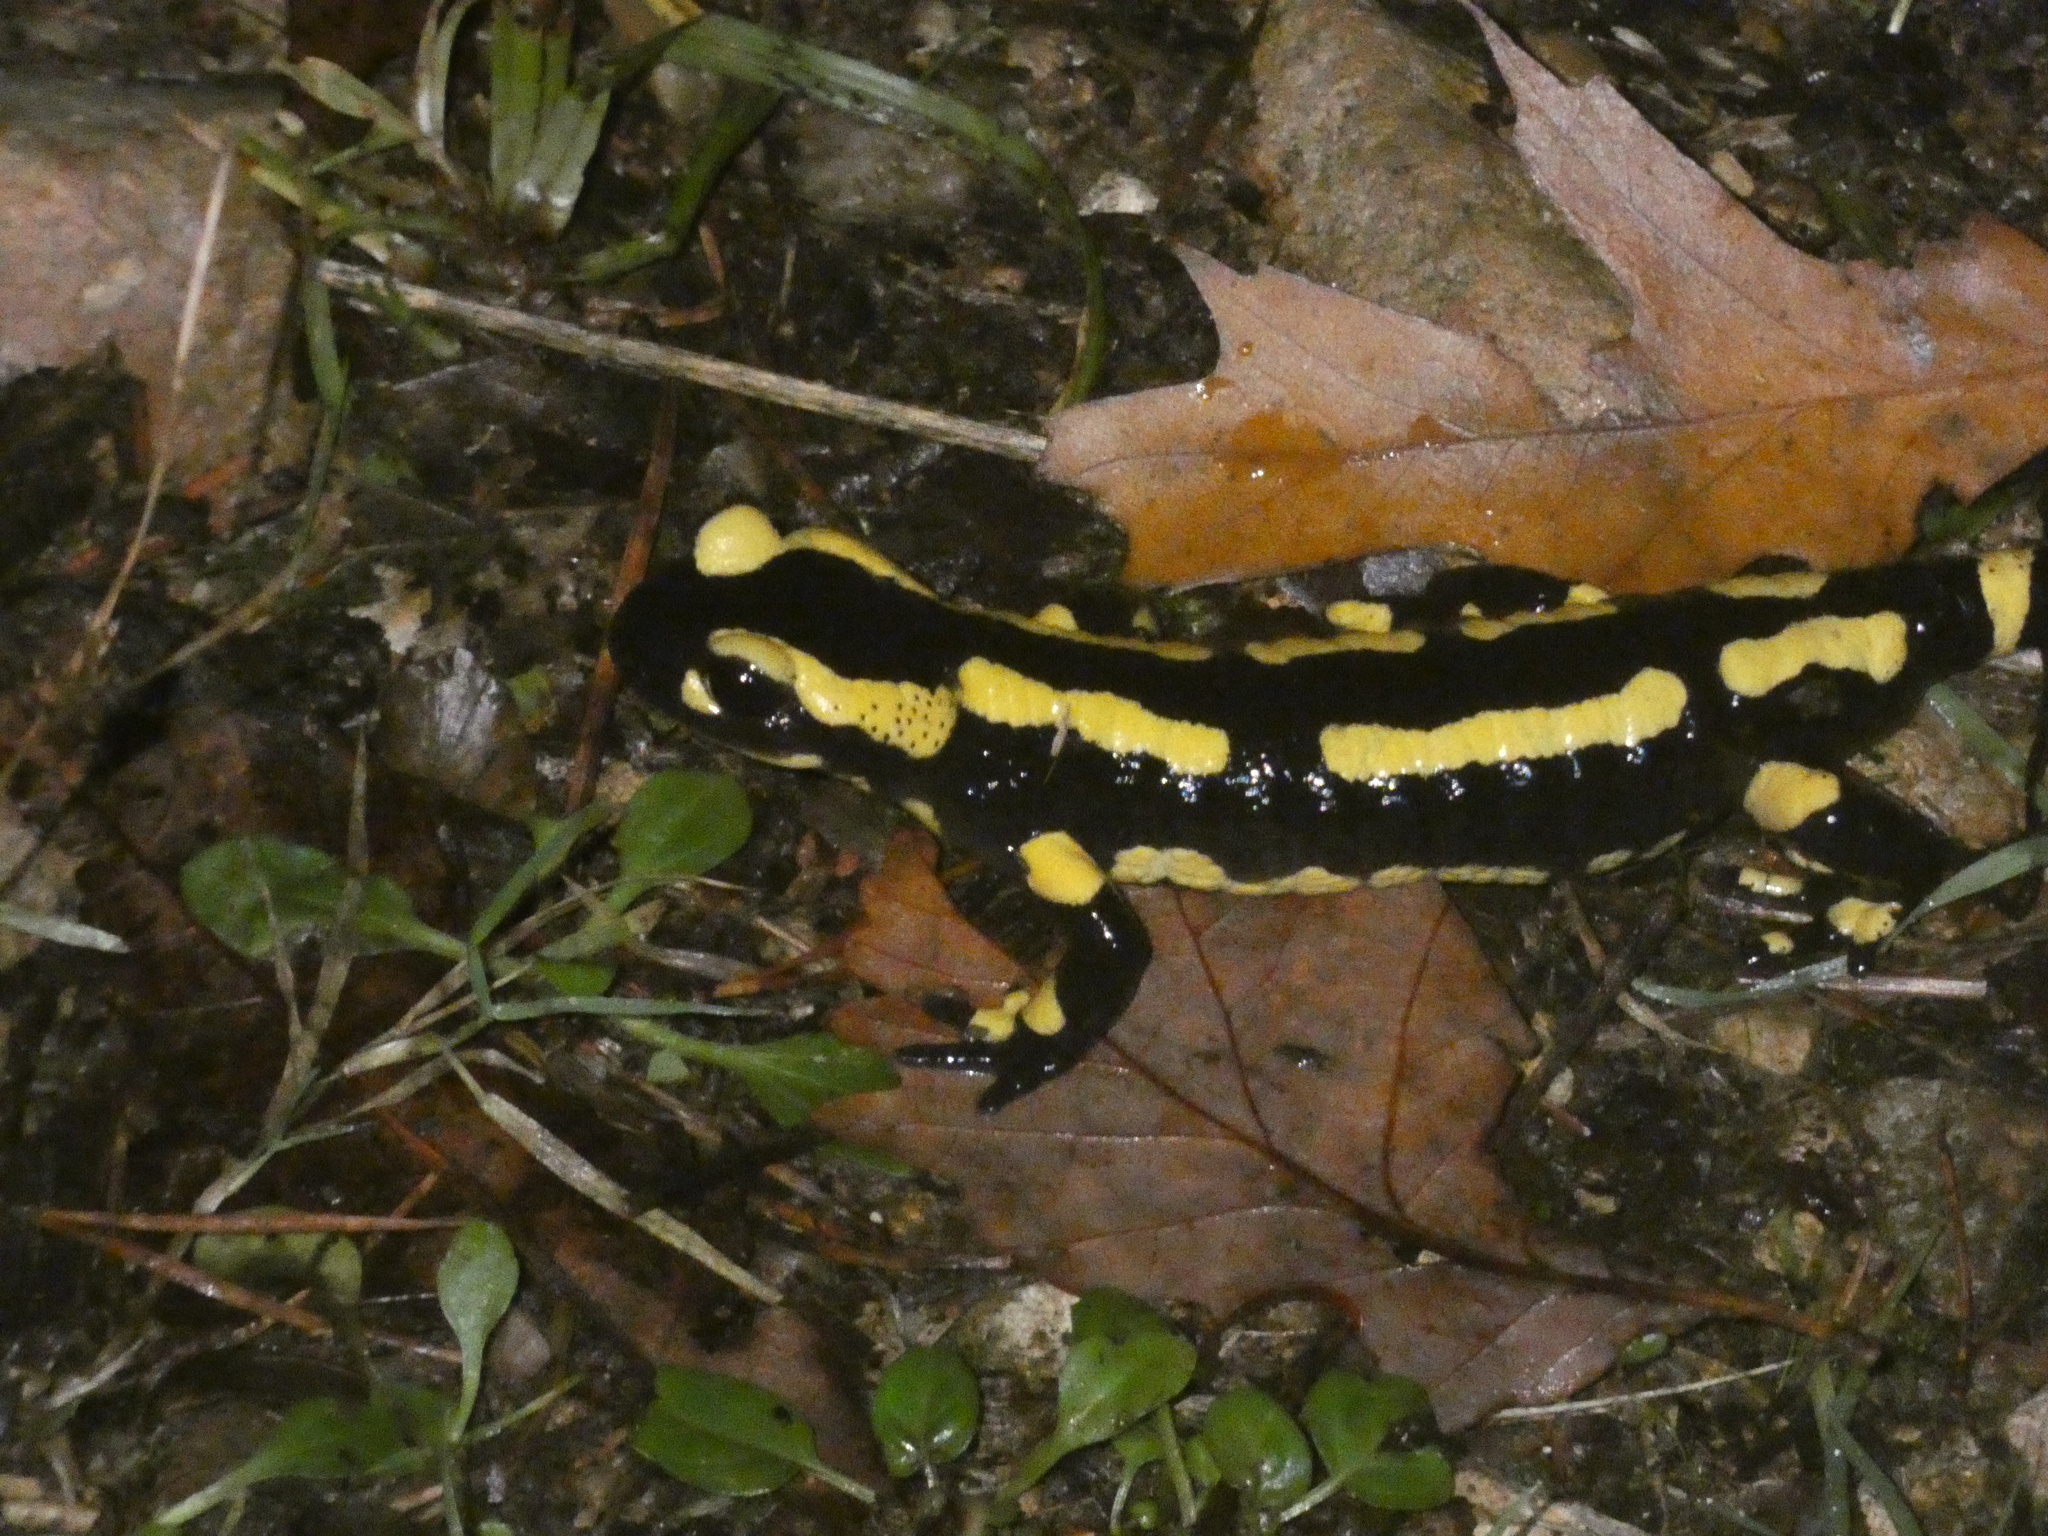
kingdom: Animalia
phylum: Chordata
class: Amphibia
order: Caudata
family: Salamandridae
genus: Salamandra
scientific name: Salamandra salamandra
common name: Fire salamander
